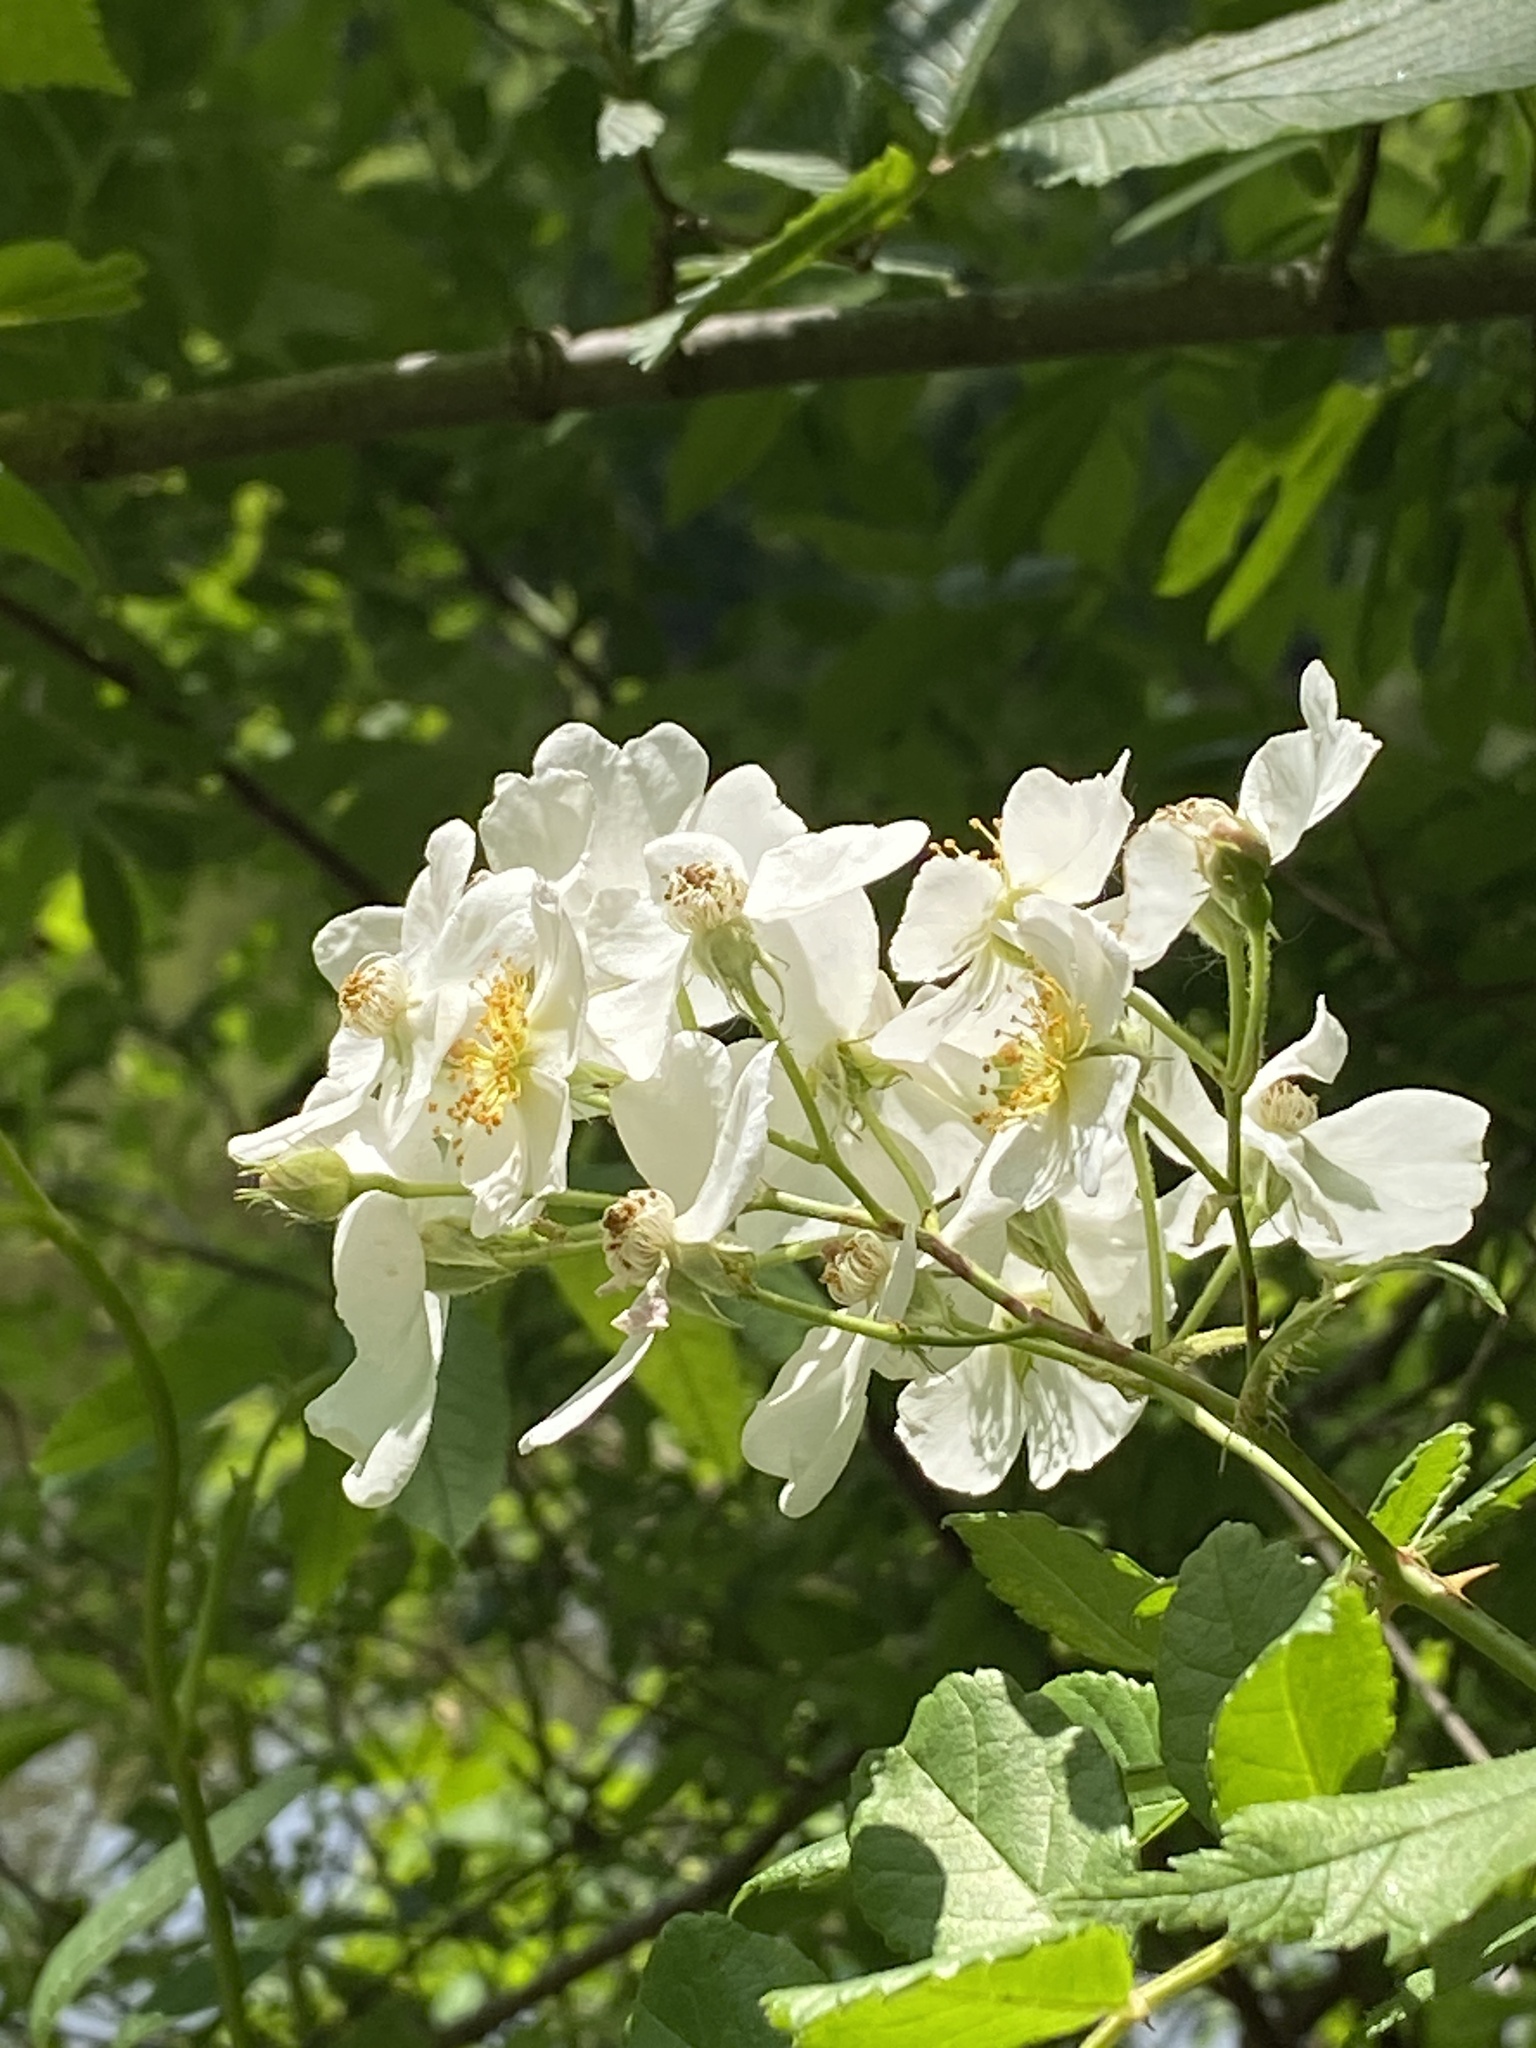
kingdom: Plantae
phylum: Tracheophyta
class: Magnoliopsida
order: Rosales
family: Rosaceae
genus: Rosa
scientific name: Rosa multiflora
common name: Multiflora rose
